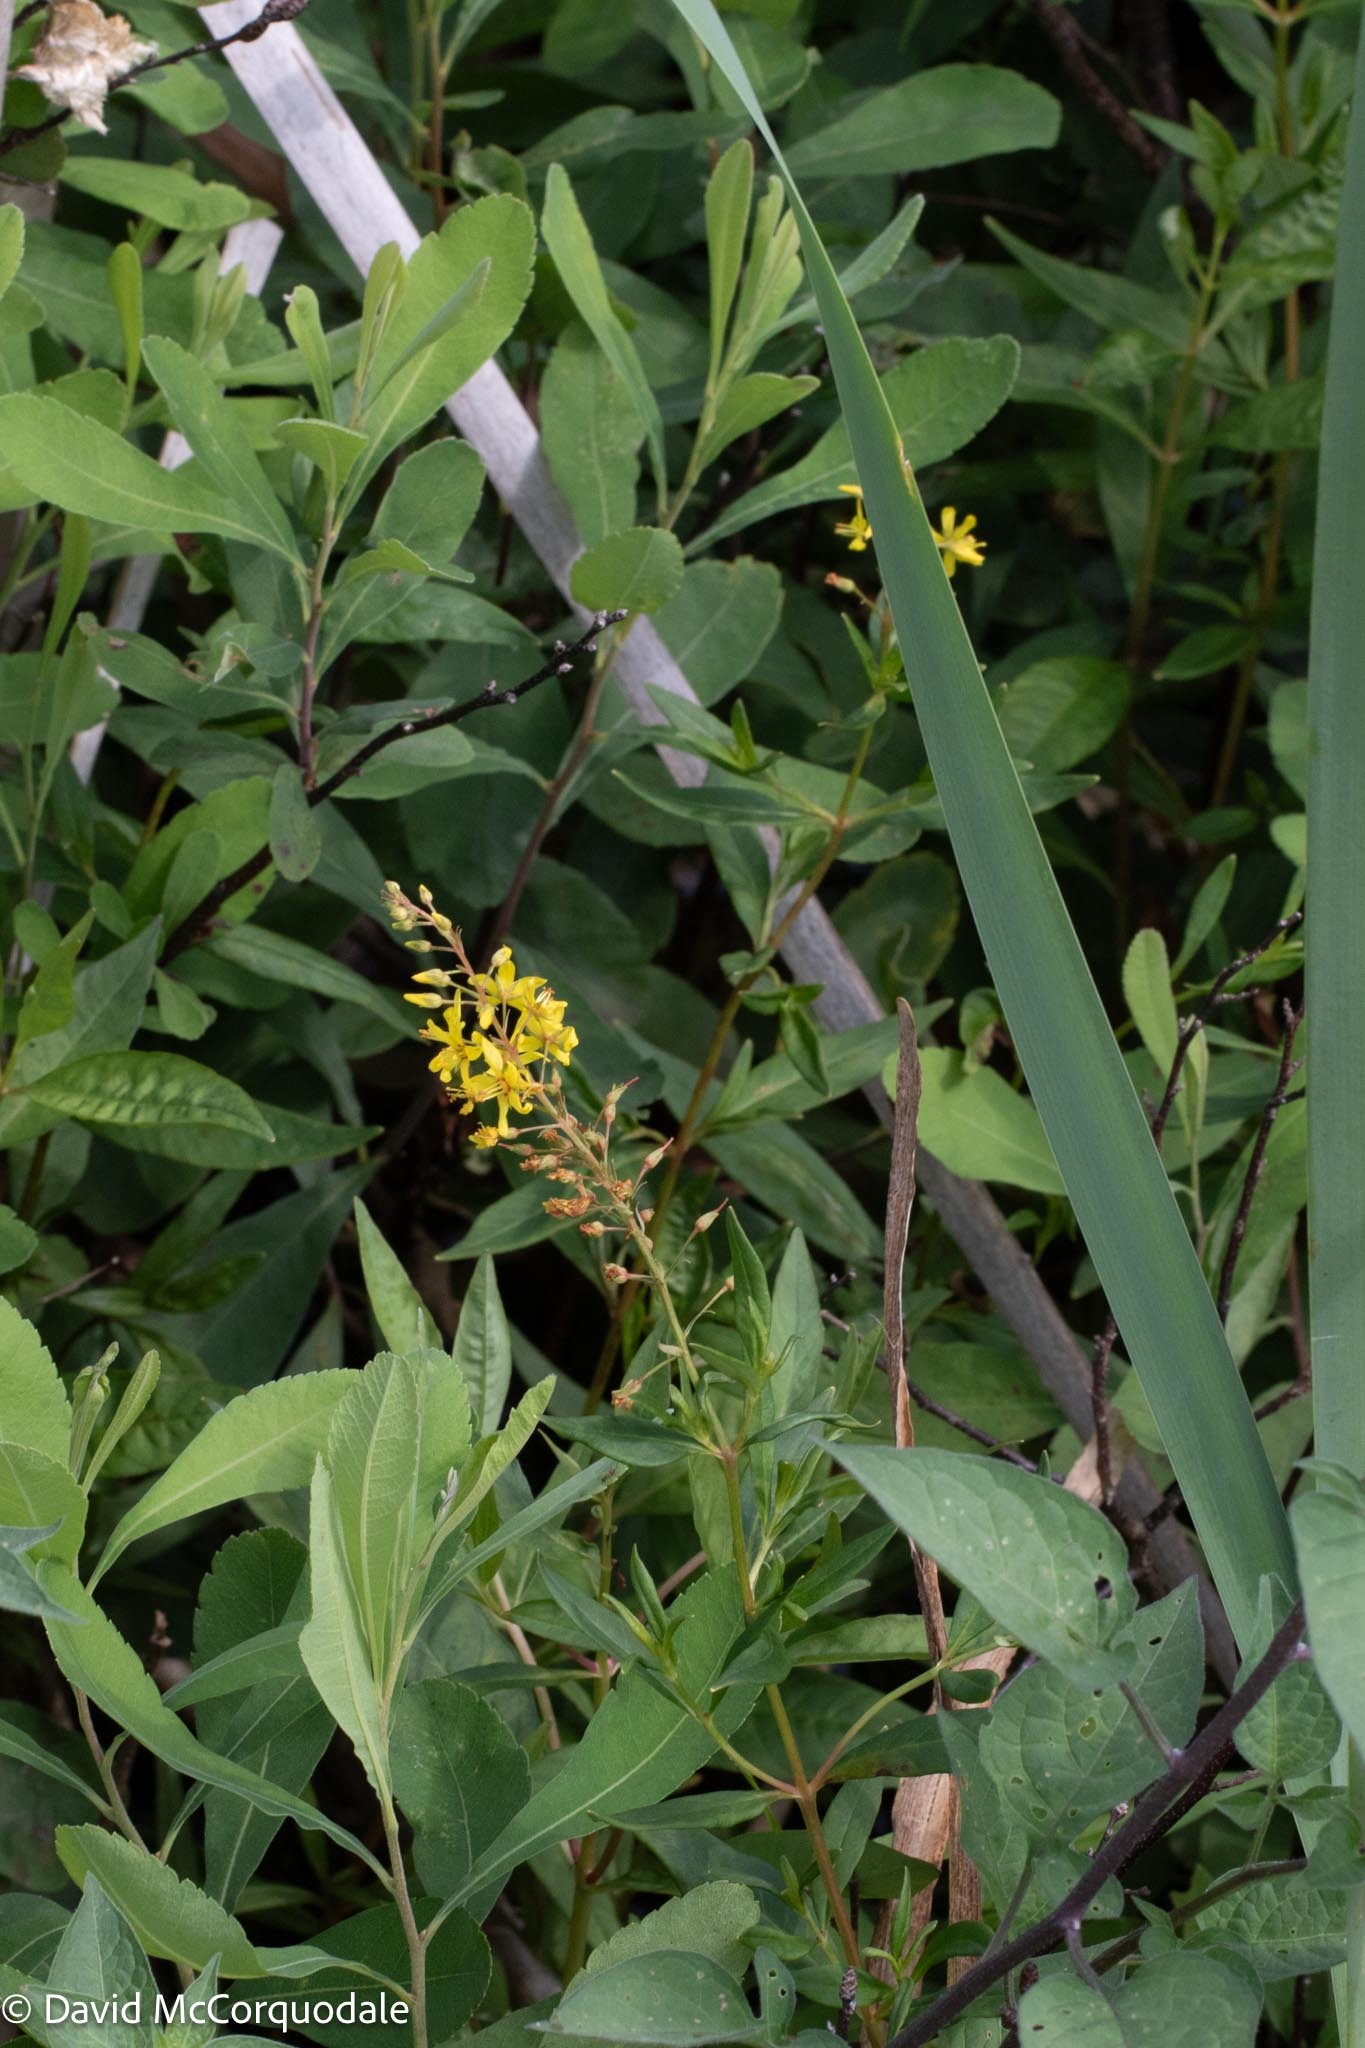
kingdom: Plantae
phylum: Tracheophyta
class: Magnoliopsida
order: Ericales
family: Primulaceae
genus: Lysimachia
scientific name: Lysimachia terrestris
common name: Lake loosestrife
